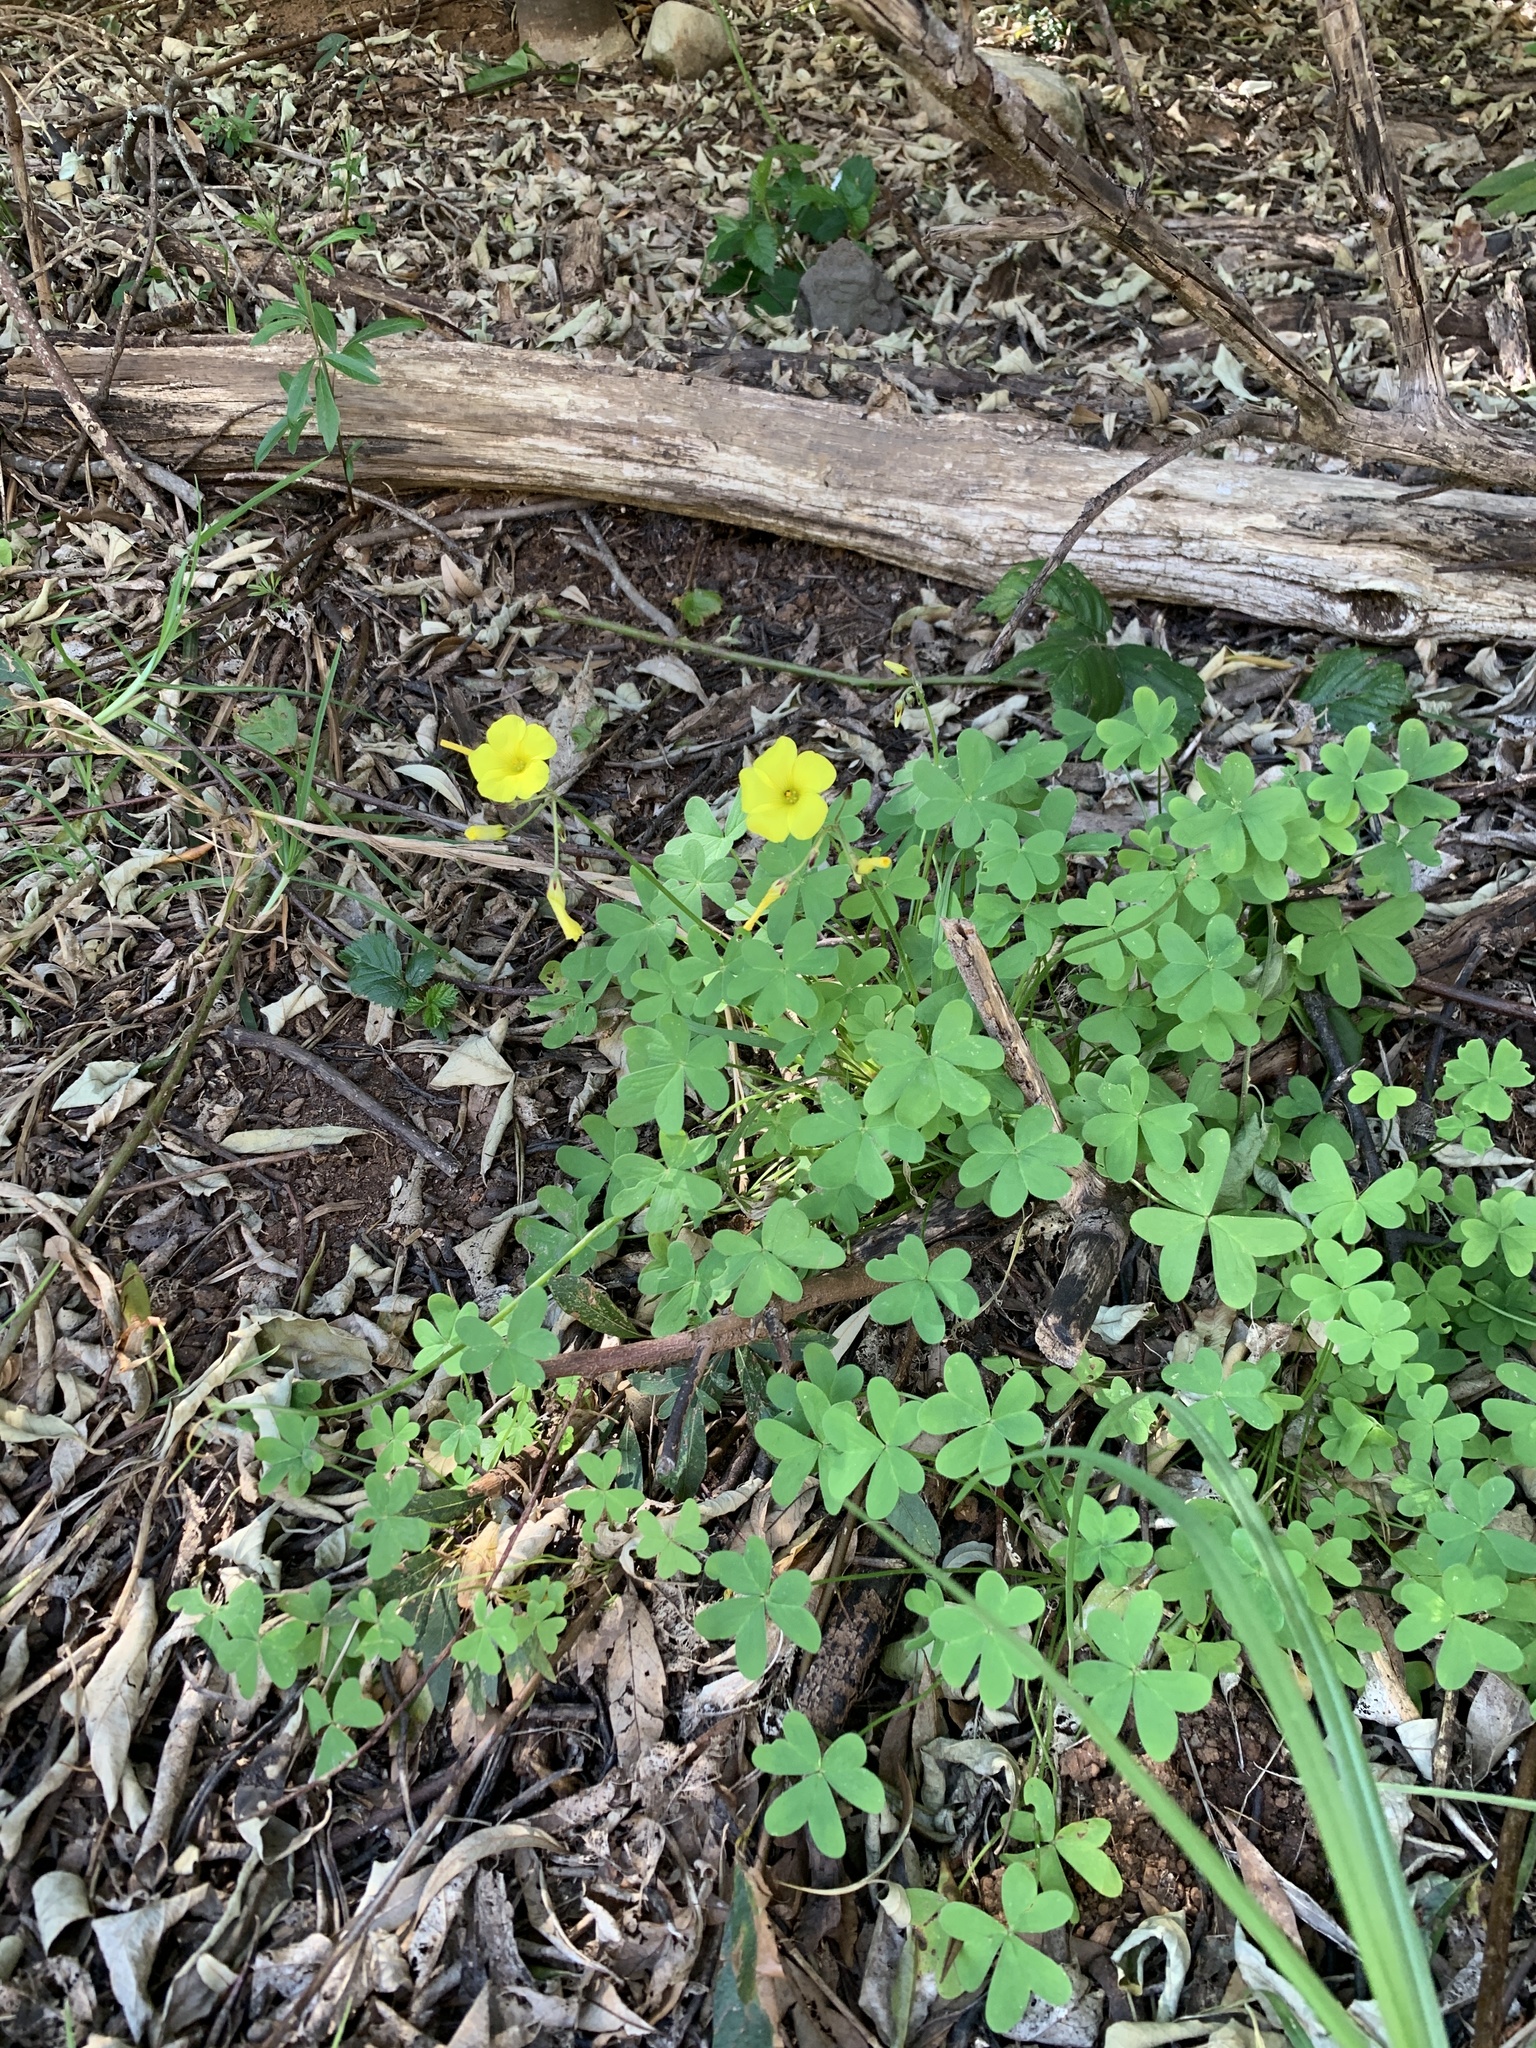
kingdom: Plantae
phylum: Tracheophyta
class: Magnoliopsida
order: Oxalidales
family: Oxalidaceae
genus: Oxalis
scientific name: Oxalis pes-caprae
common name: Bermuda-buttercup
